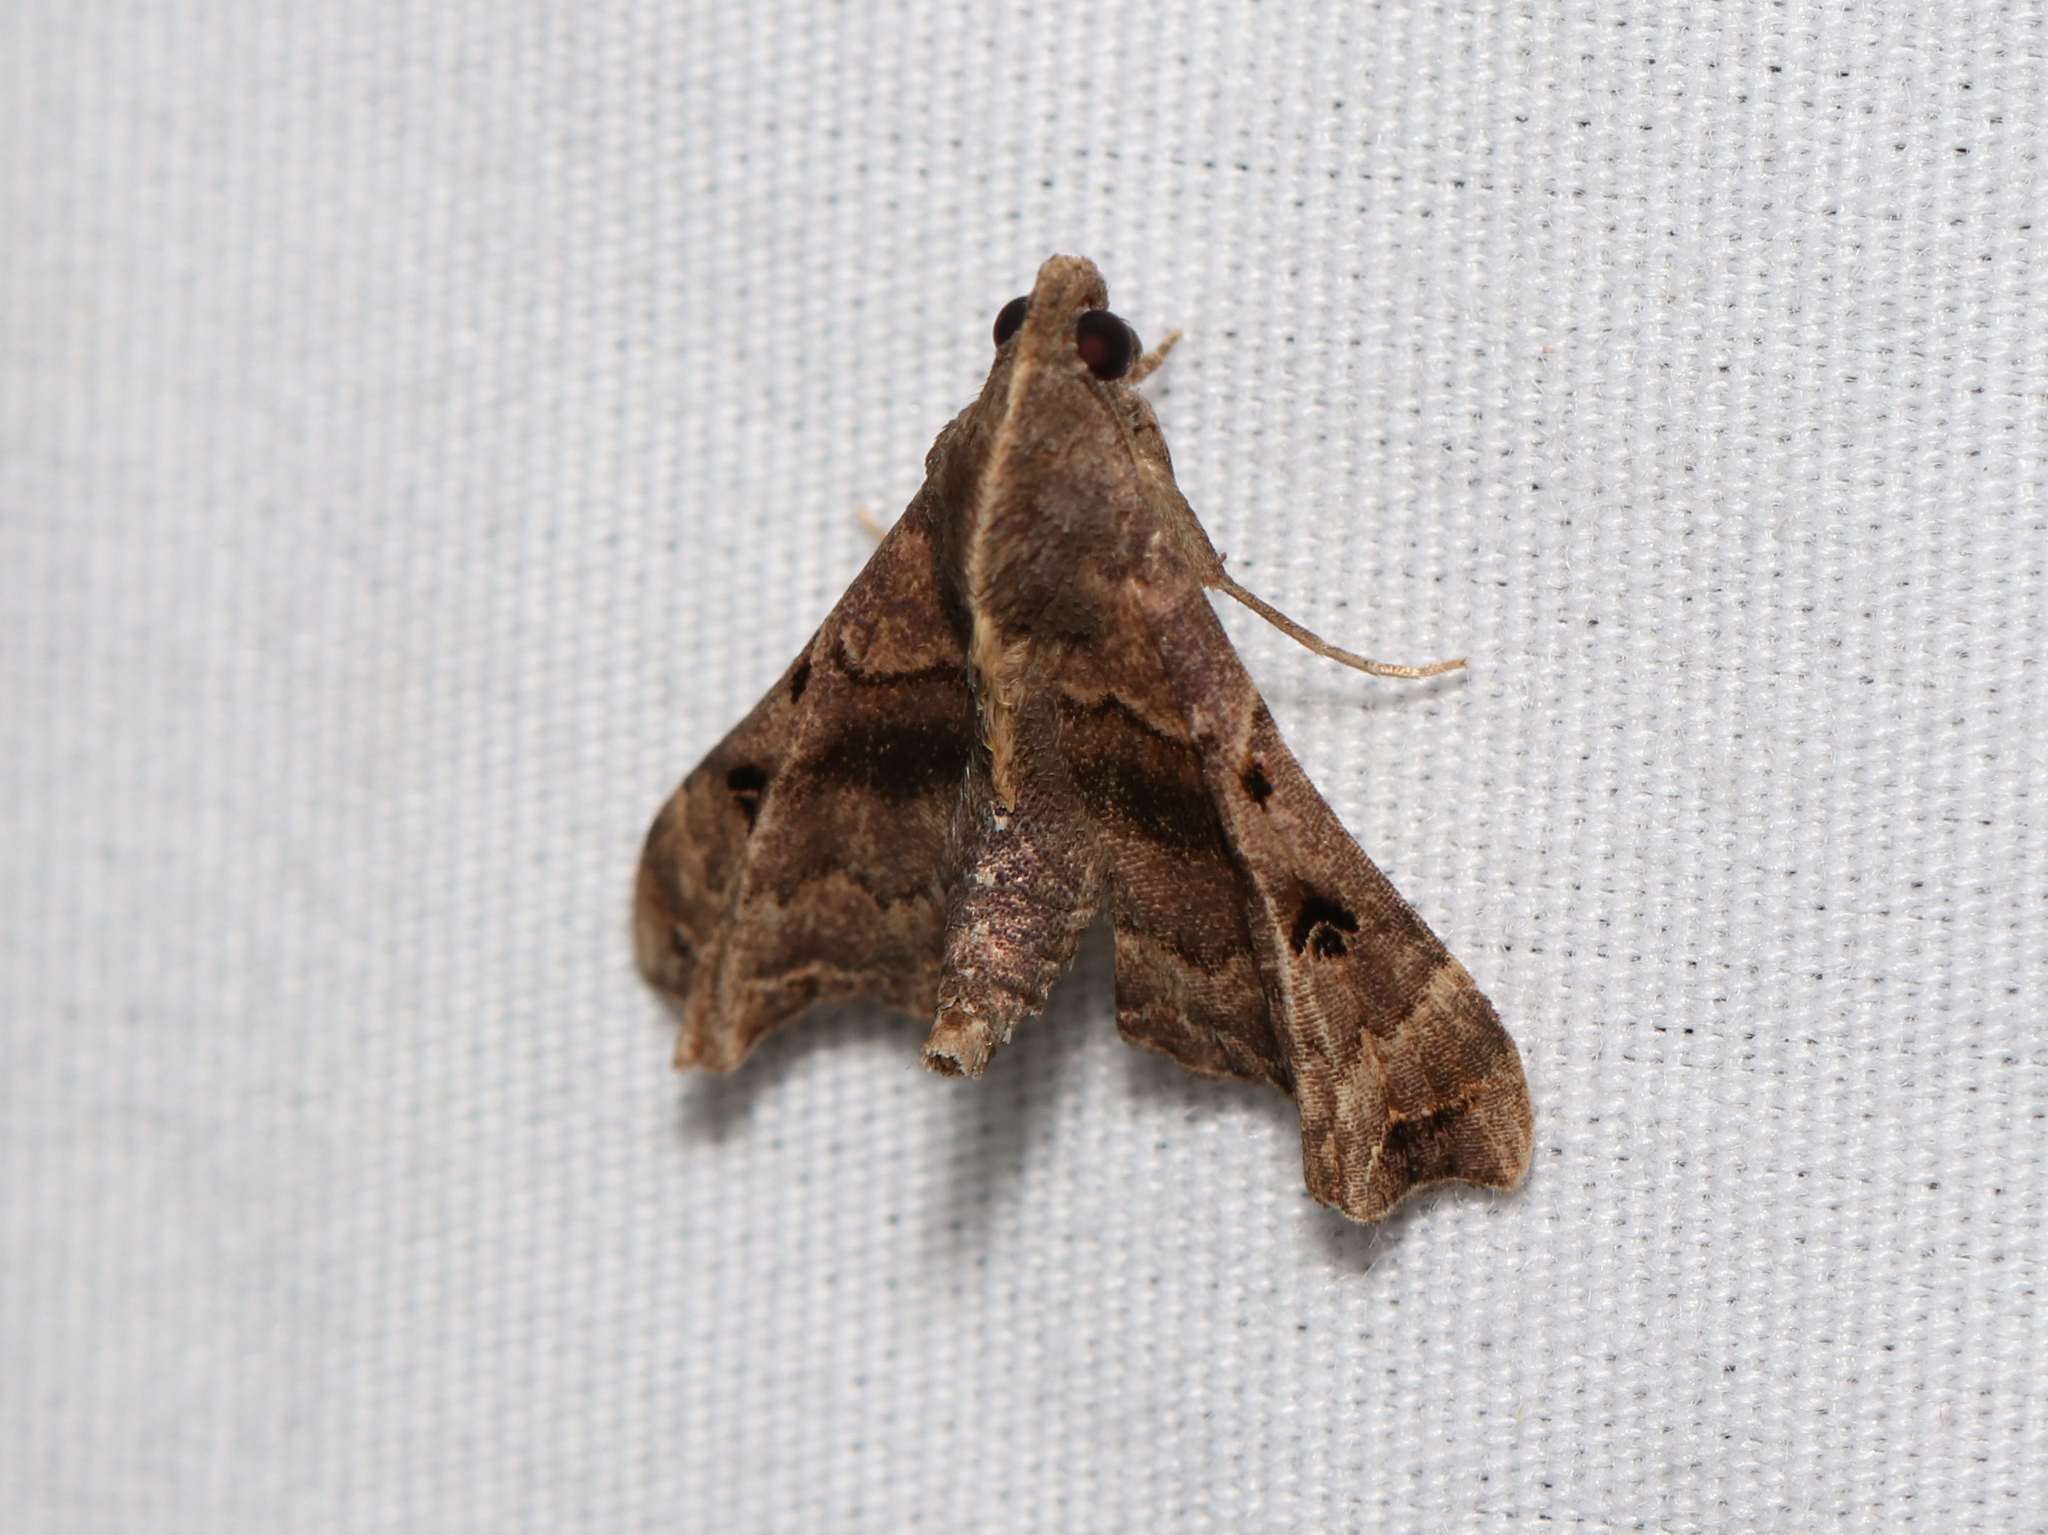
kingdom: Animalia
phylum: Arthropoda
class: Insecta
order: Lepidoptera
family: Erebidae
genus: Palthis
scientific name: Palthis asopialis
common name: Faint-spotted palthis moth
